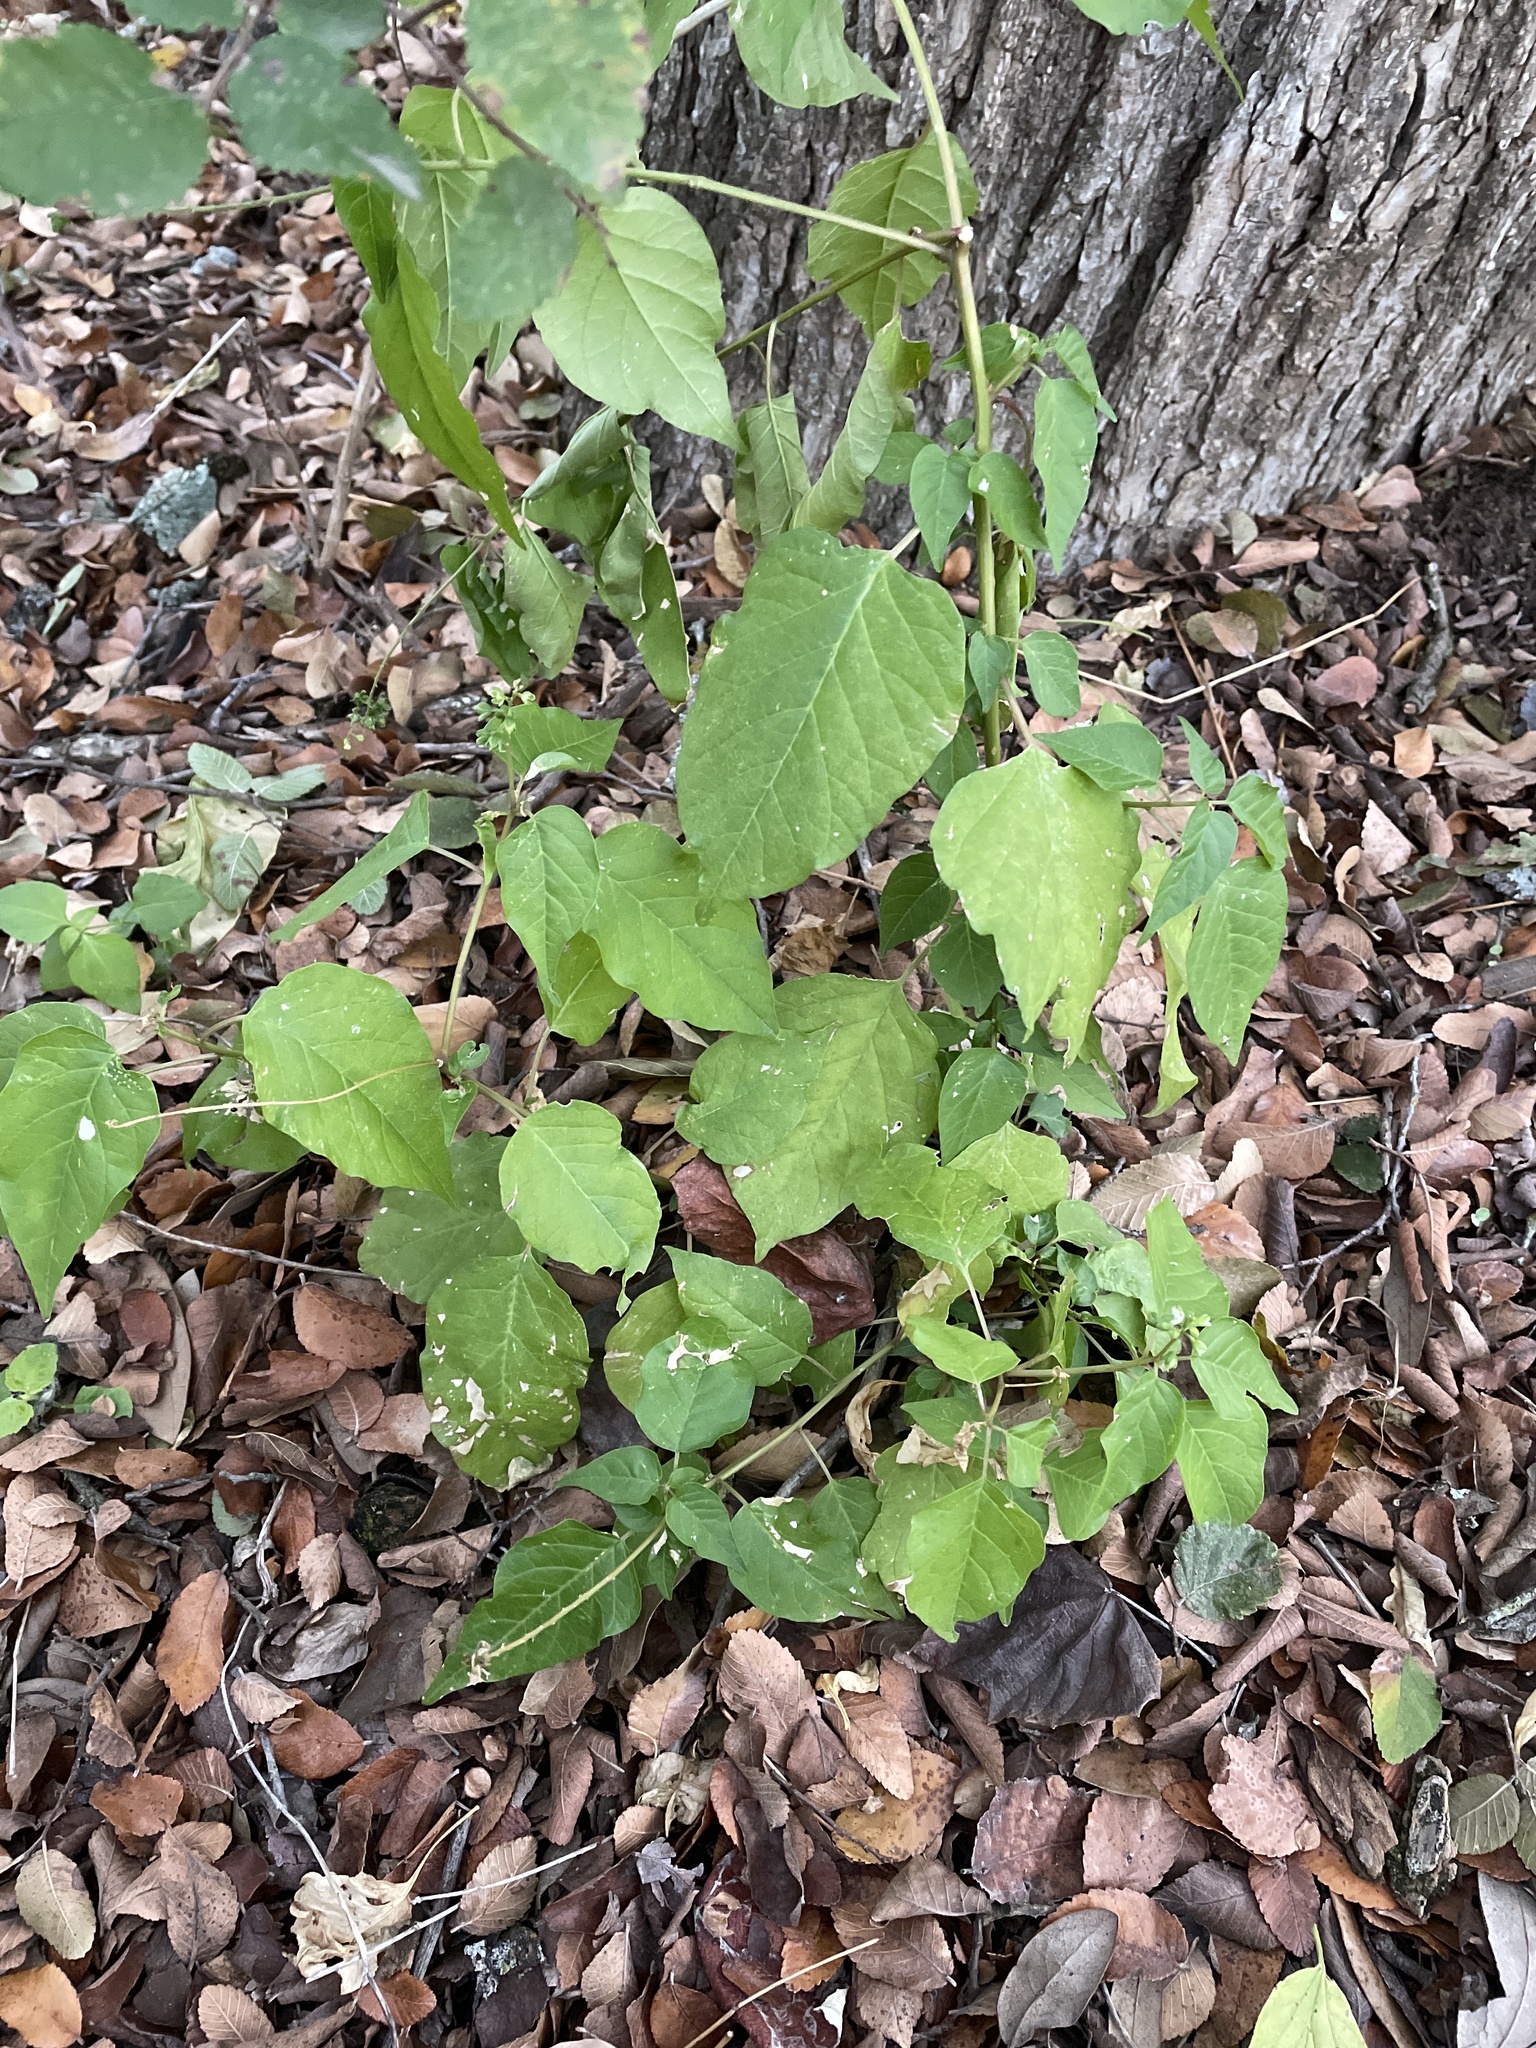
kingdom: Plantae
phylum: Tracheophyta
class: Magnoliopsida
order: Caryophyllales
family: Phytolaccaceae
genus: Rivina
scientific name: Rivina humilis
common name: Rougeplant
